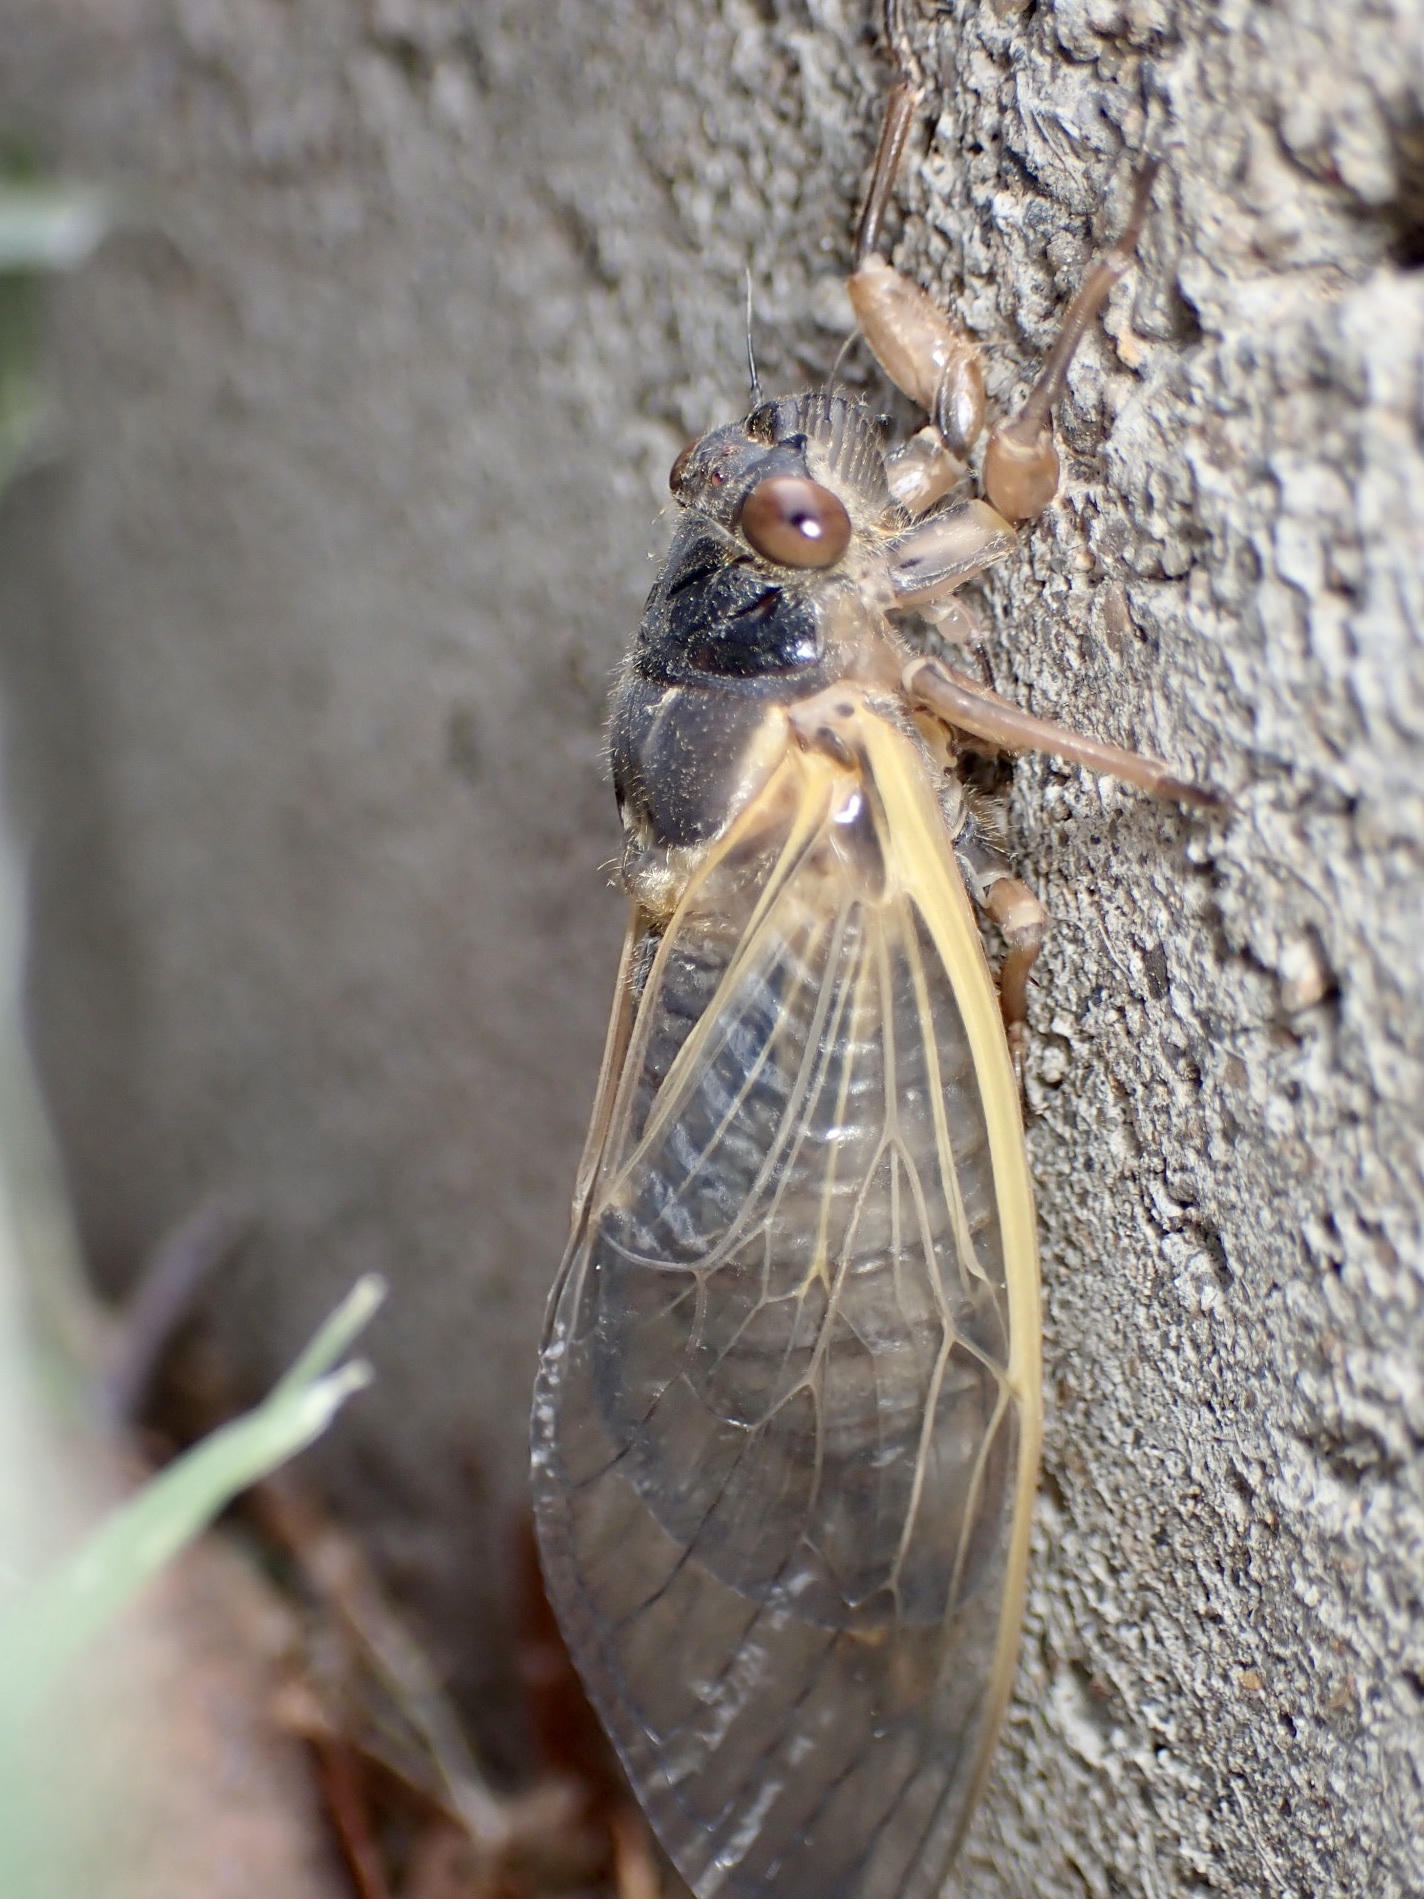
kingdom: Animalia
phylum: Arthropoda
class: Insecta
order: Hemiptera
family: Cicadidae
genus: Magicicada
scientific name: Magicicada
